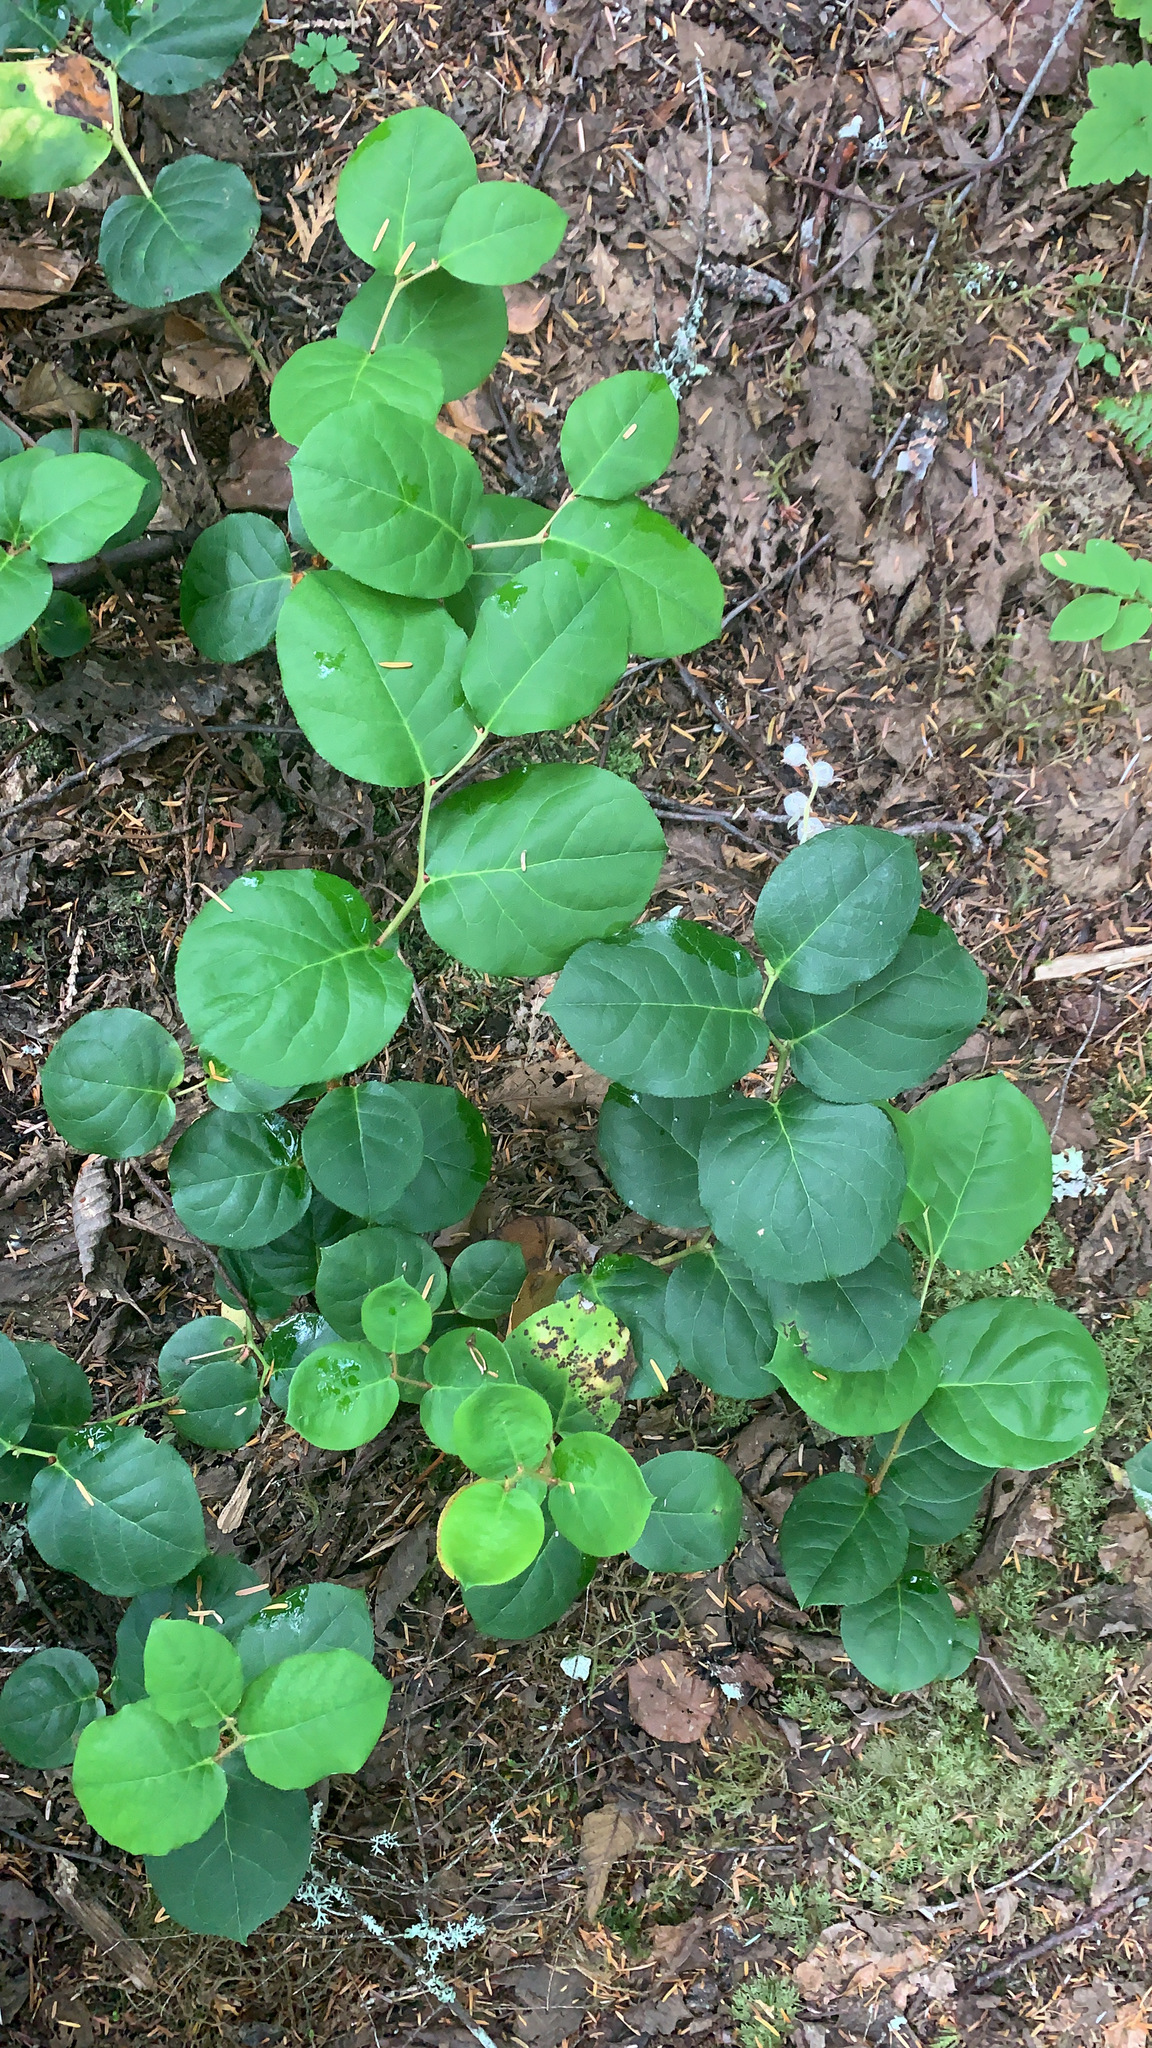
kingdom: Plantae
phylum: Tracheophyta
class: Magnoliopsida
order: Ericales
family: Ericaceae
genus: Gaultheria
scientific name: Gaultheria shallon
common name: Shallon
